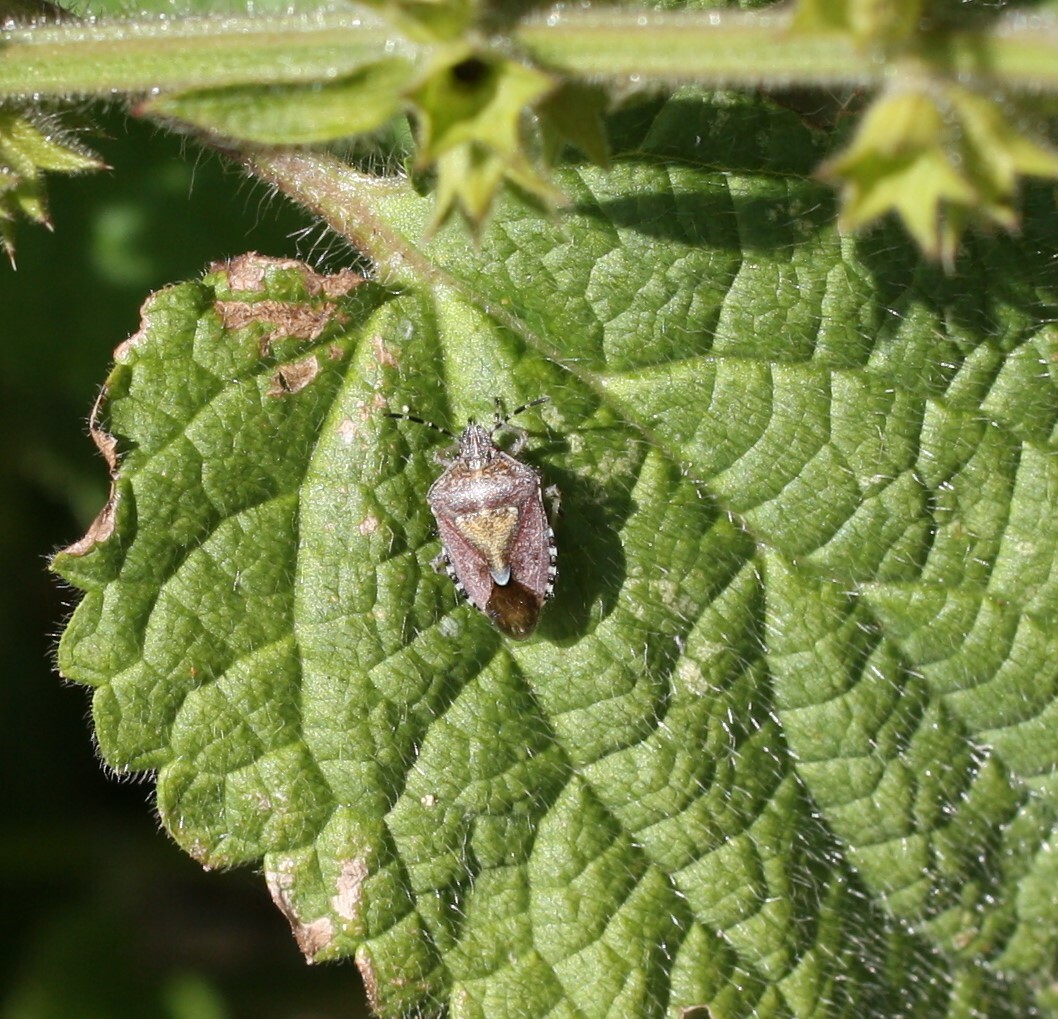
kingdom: Animalia
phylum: Arthropoda
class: Insecta
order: Hemiptera
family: Pentatomidae
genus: Dolycoris
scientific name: Dolycoris baccarum
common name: Sloe bug
